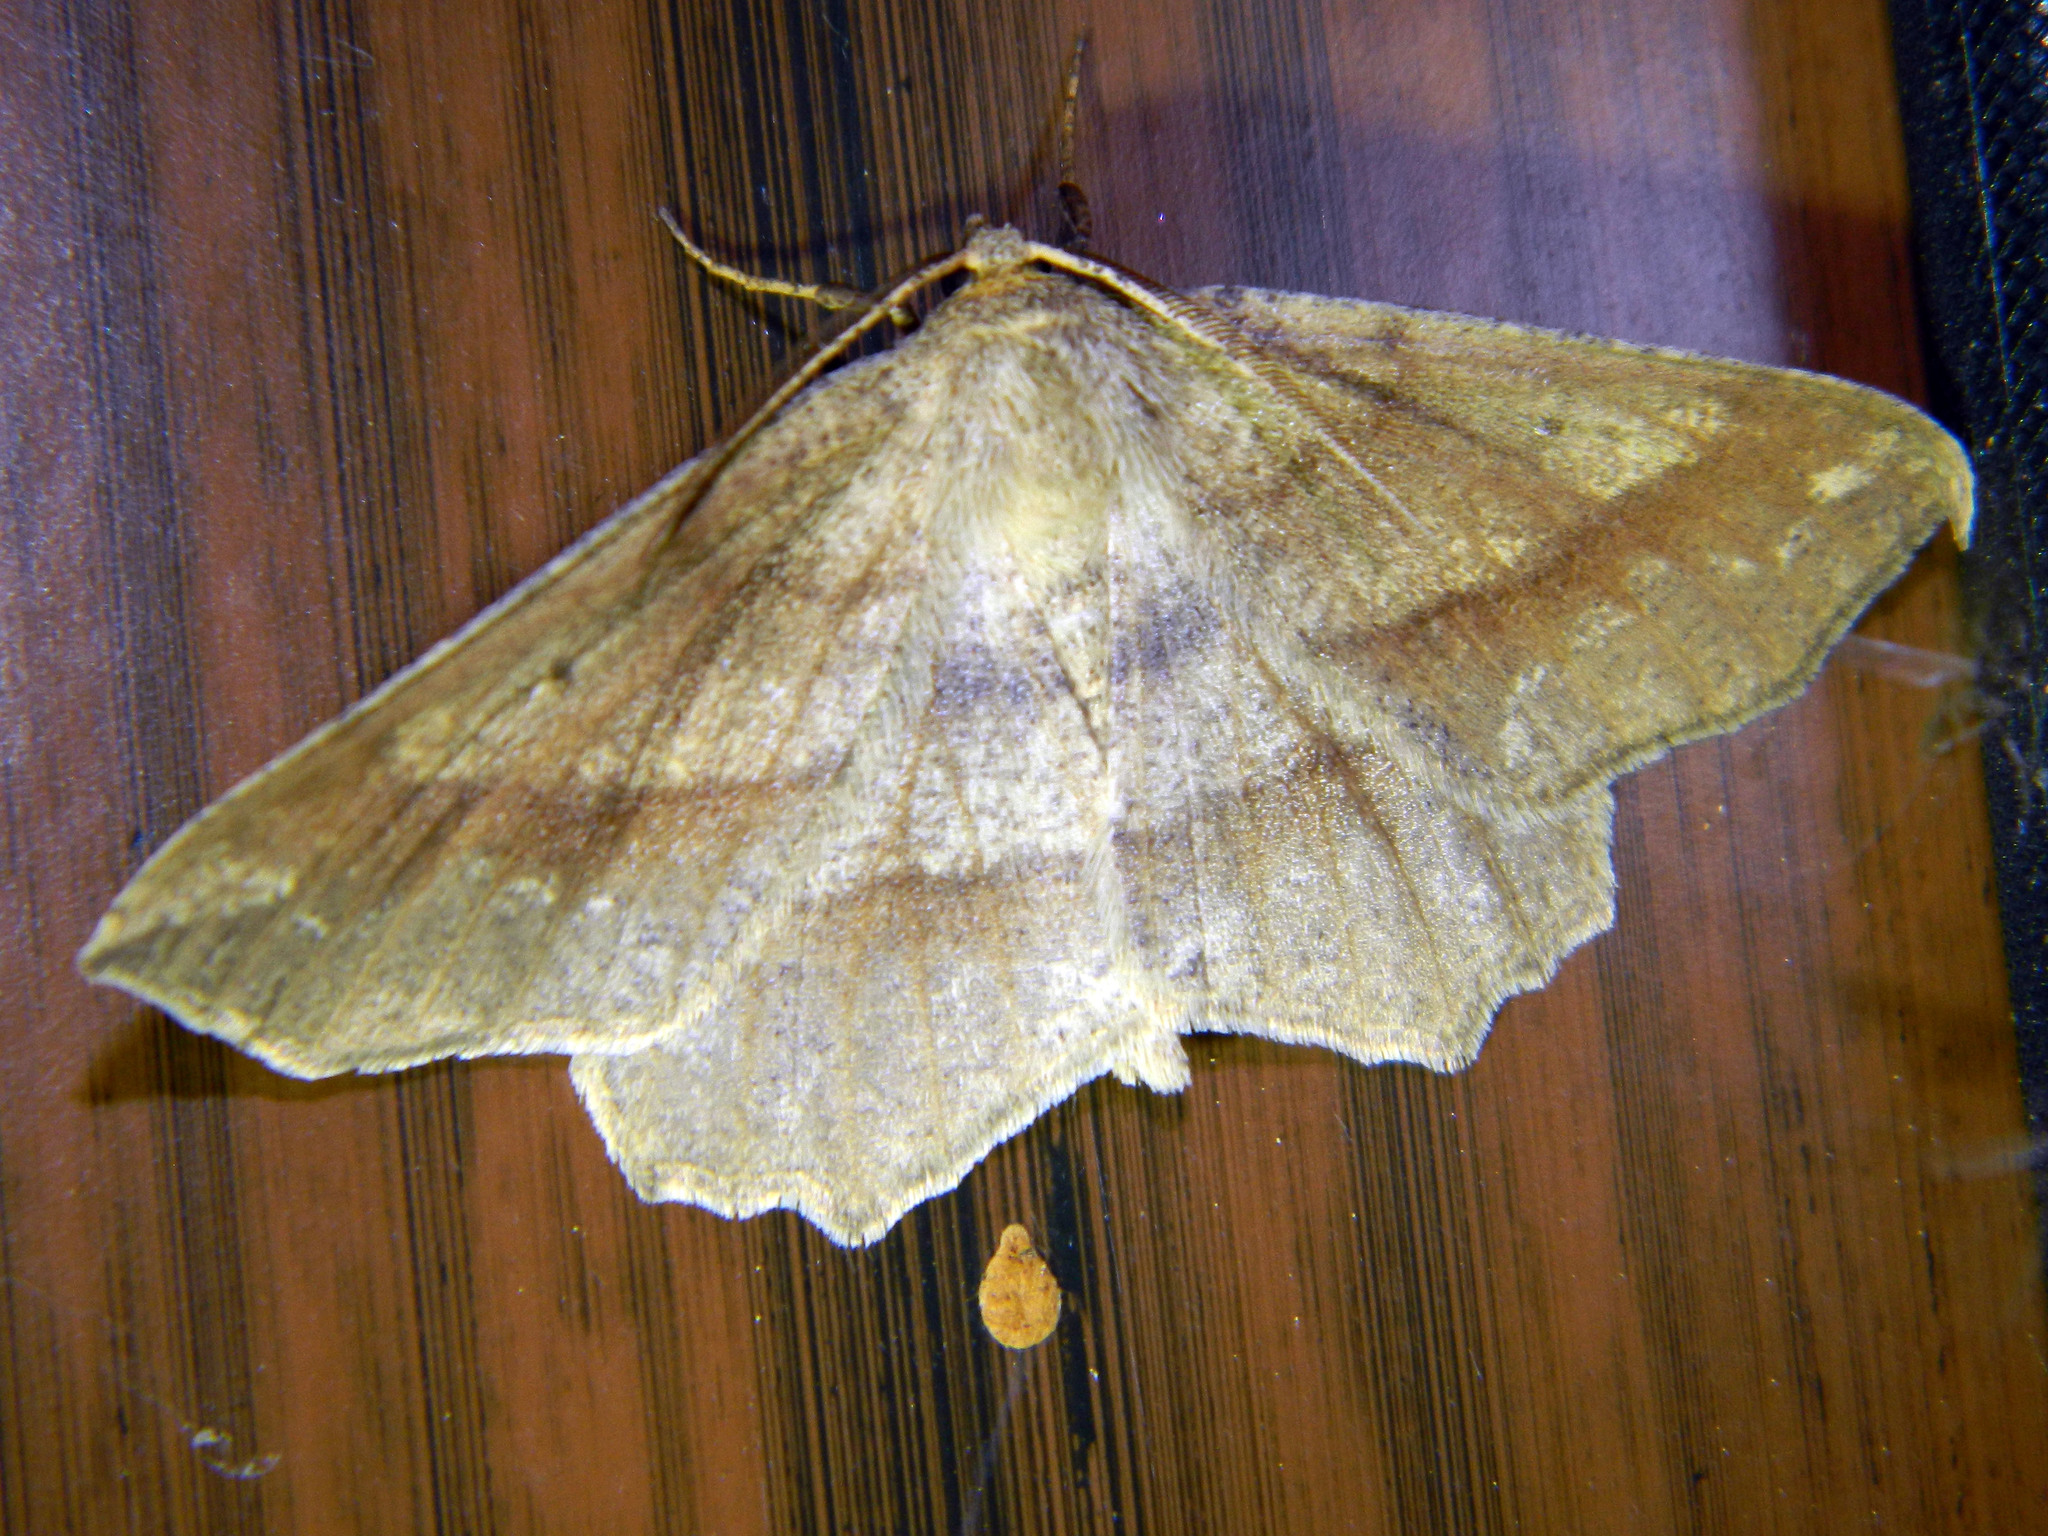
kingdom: Animalia
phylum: Arthropoda
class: Insecta
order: Lepidoptera
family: Geometridae
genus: Euchlaena
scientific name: Euchlaena marginaria
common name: Ochre euchlaena moth
